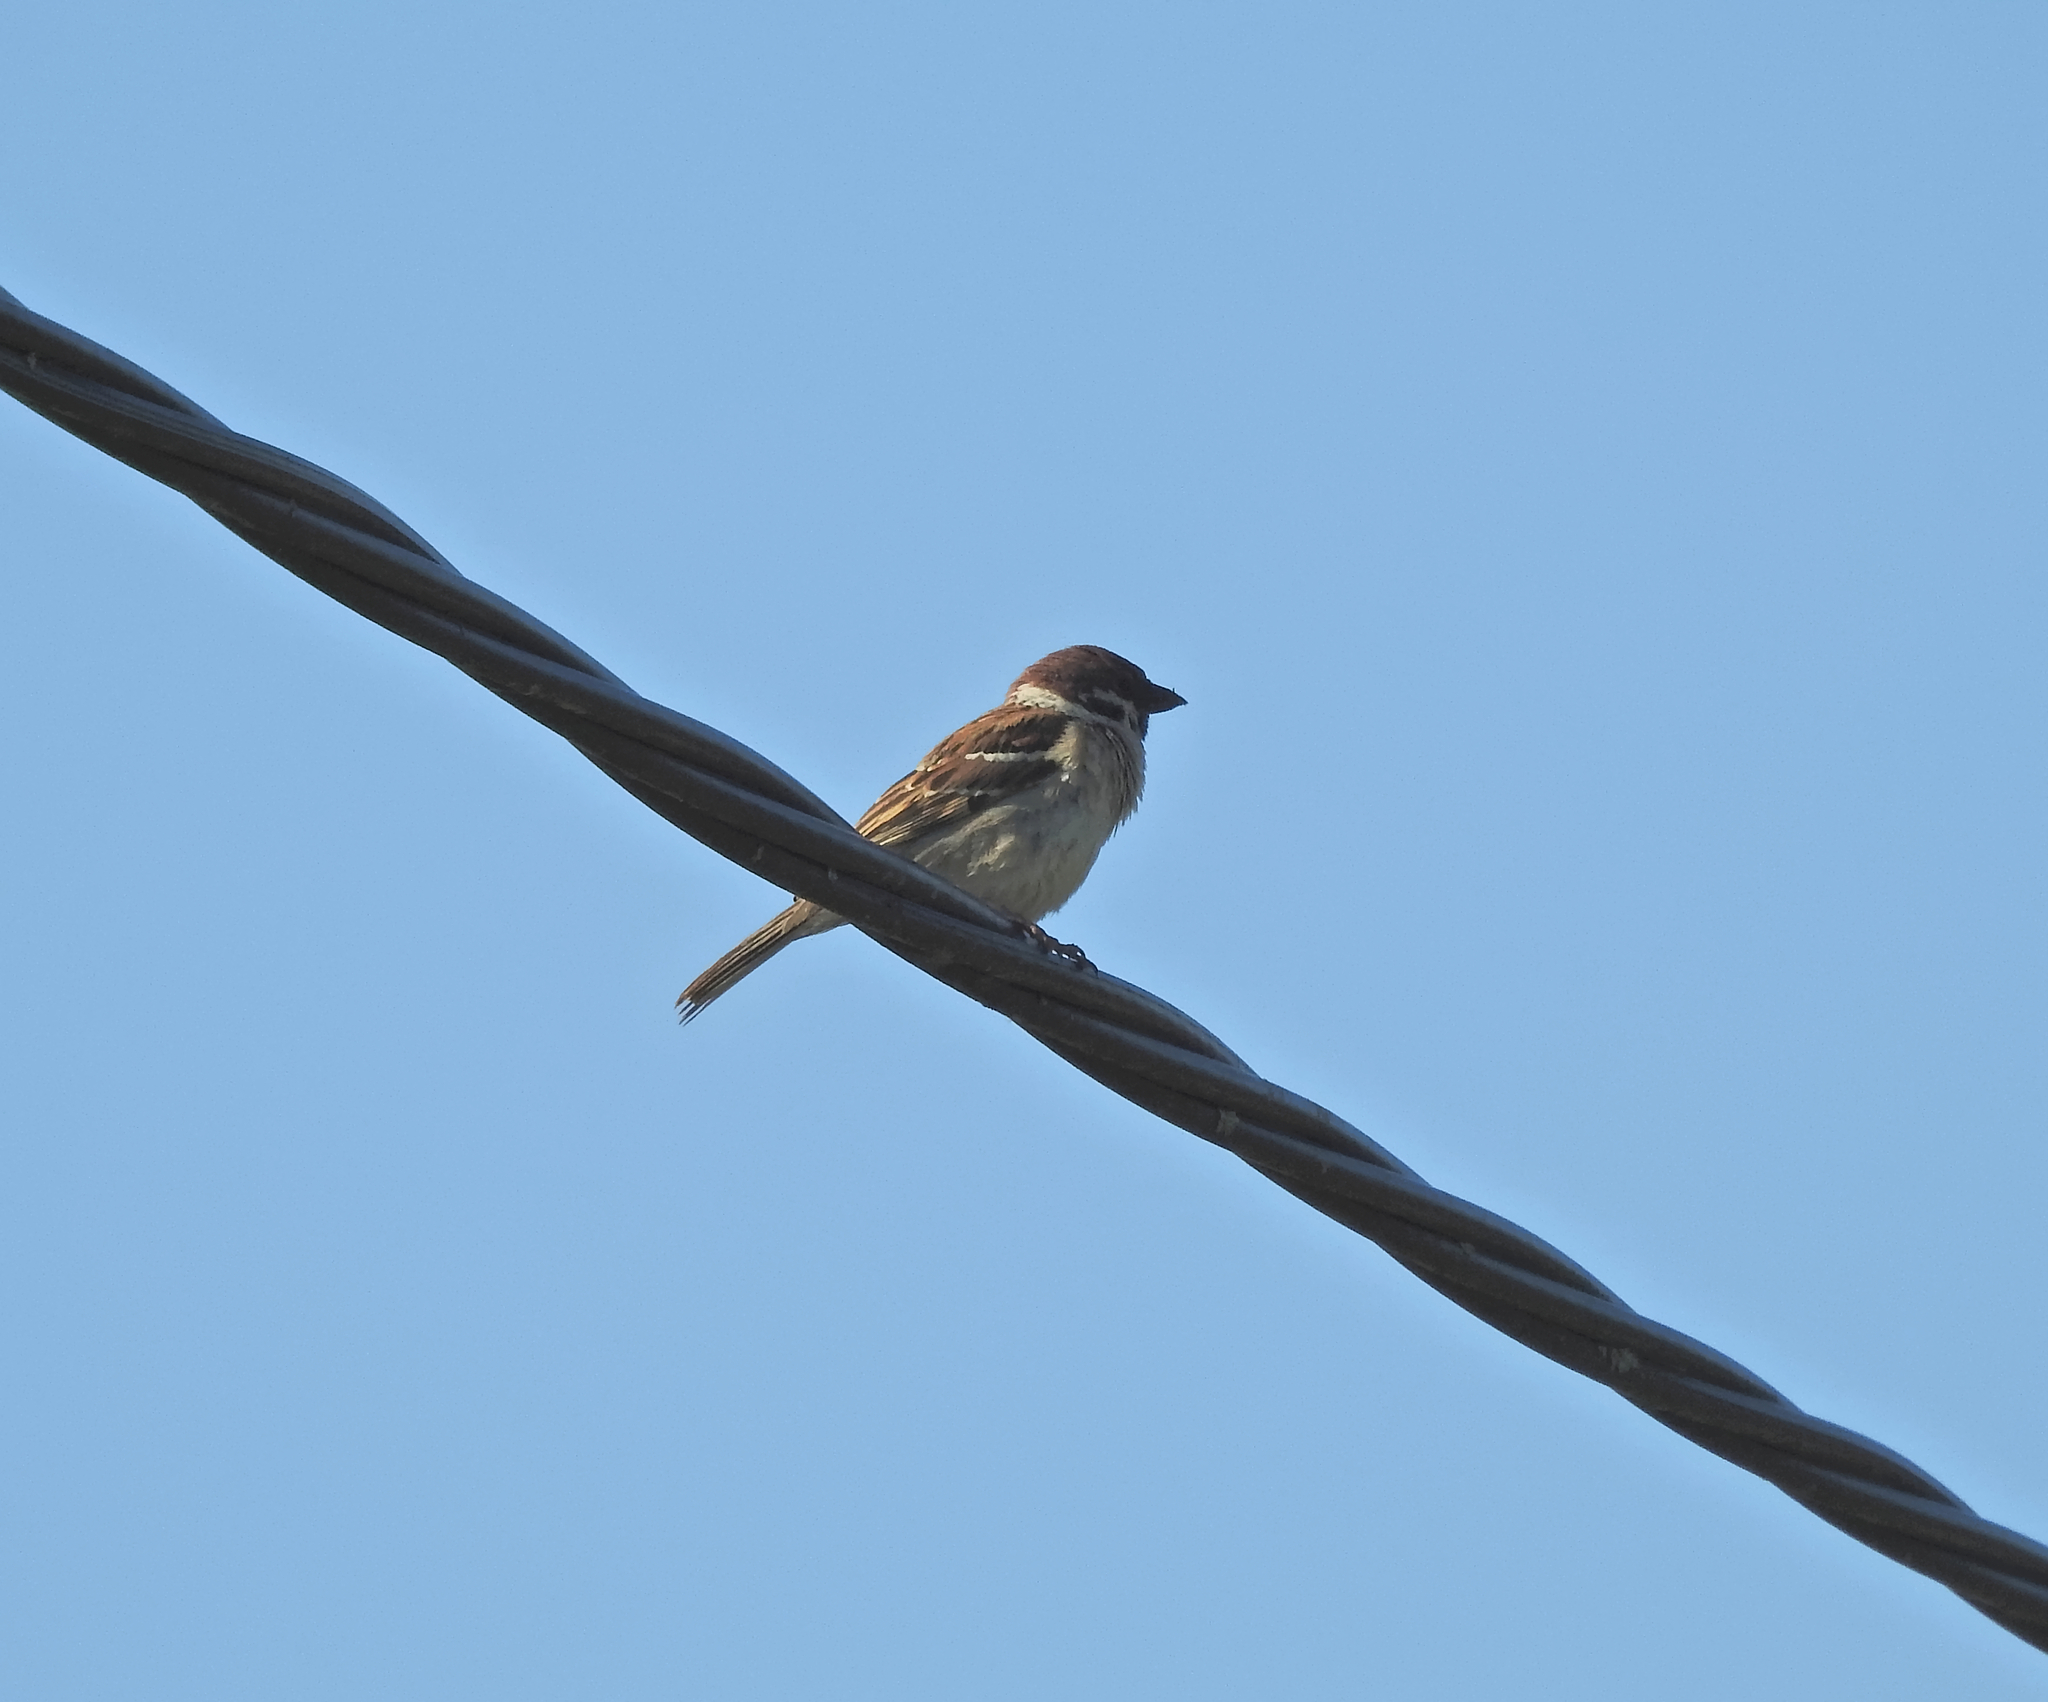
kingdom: Animalia
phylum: Chordata
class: Aves
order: Passeriformes
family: Passeridae
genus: Passer
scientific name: Passer montanus
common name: Eurasian tree sparrow
